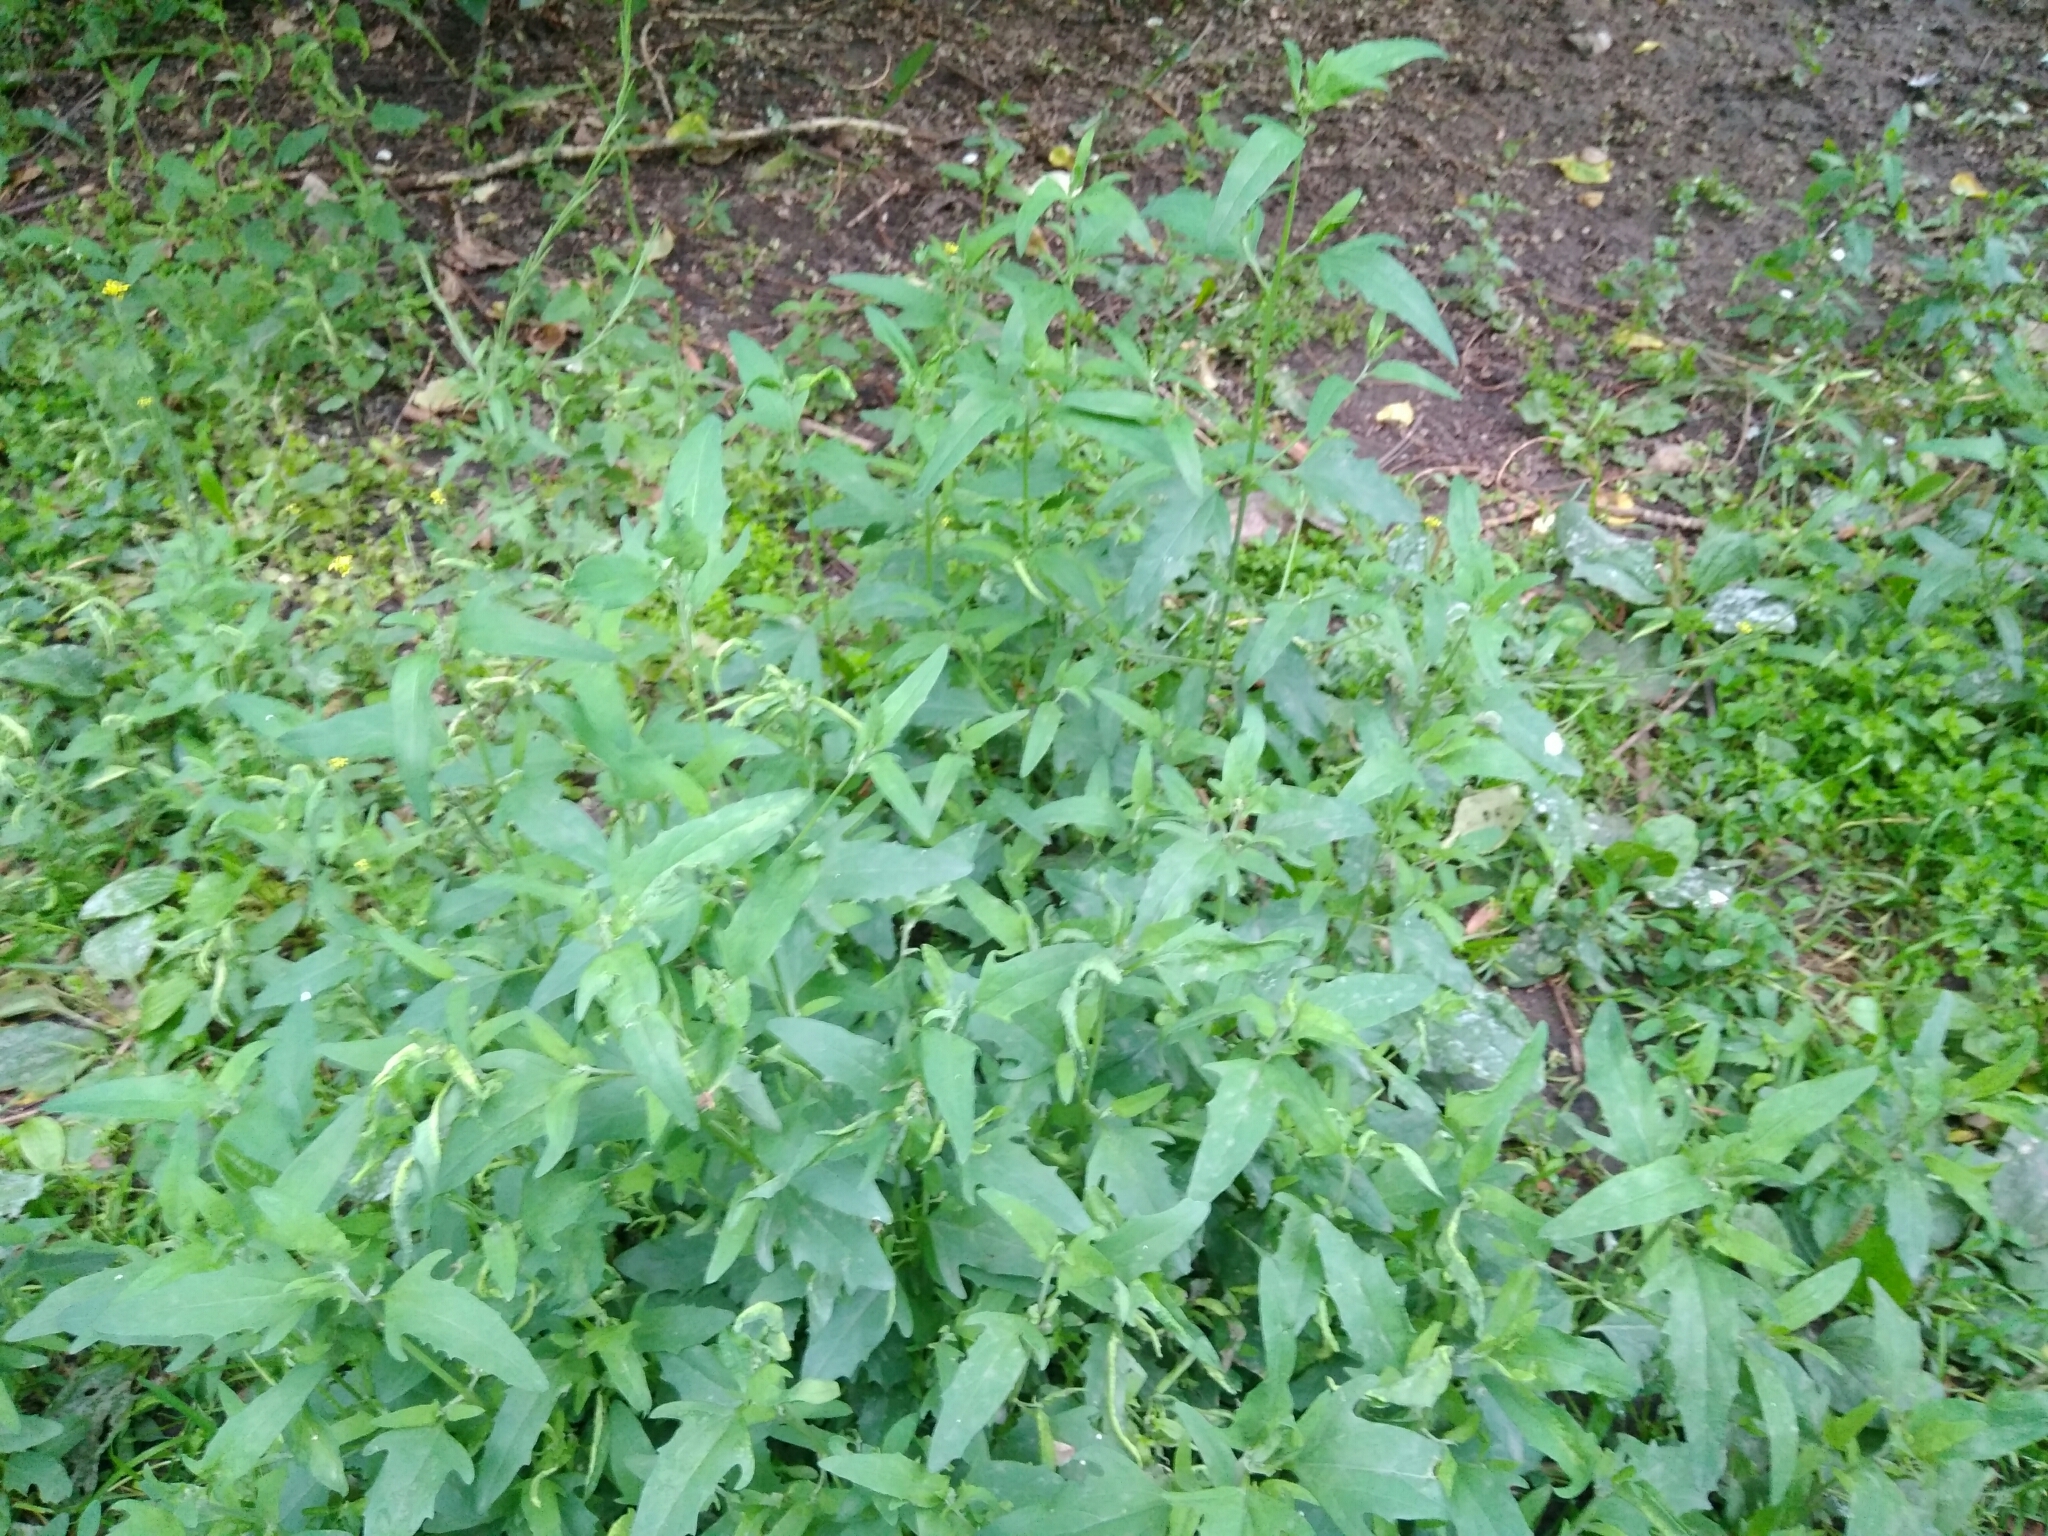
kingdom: Plantae
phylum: Tracheophyta
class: Magnoliopsida
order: Caryophyllales
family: Amaranthaceae
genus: Atriplex
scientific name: Atriplex patula
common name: Common orache
